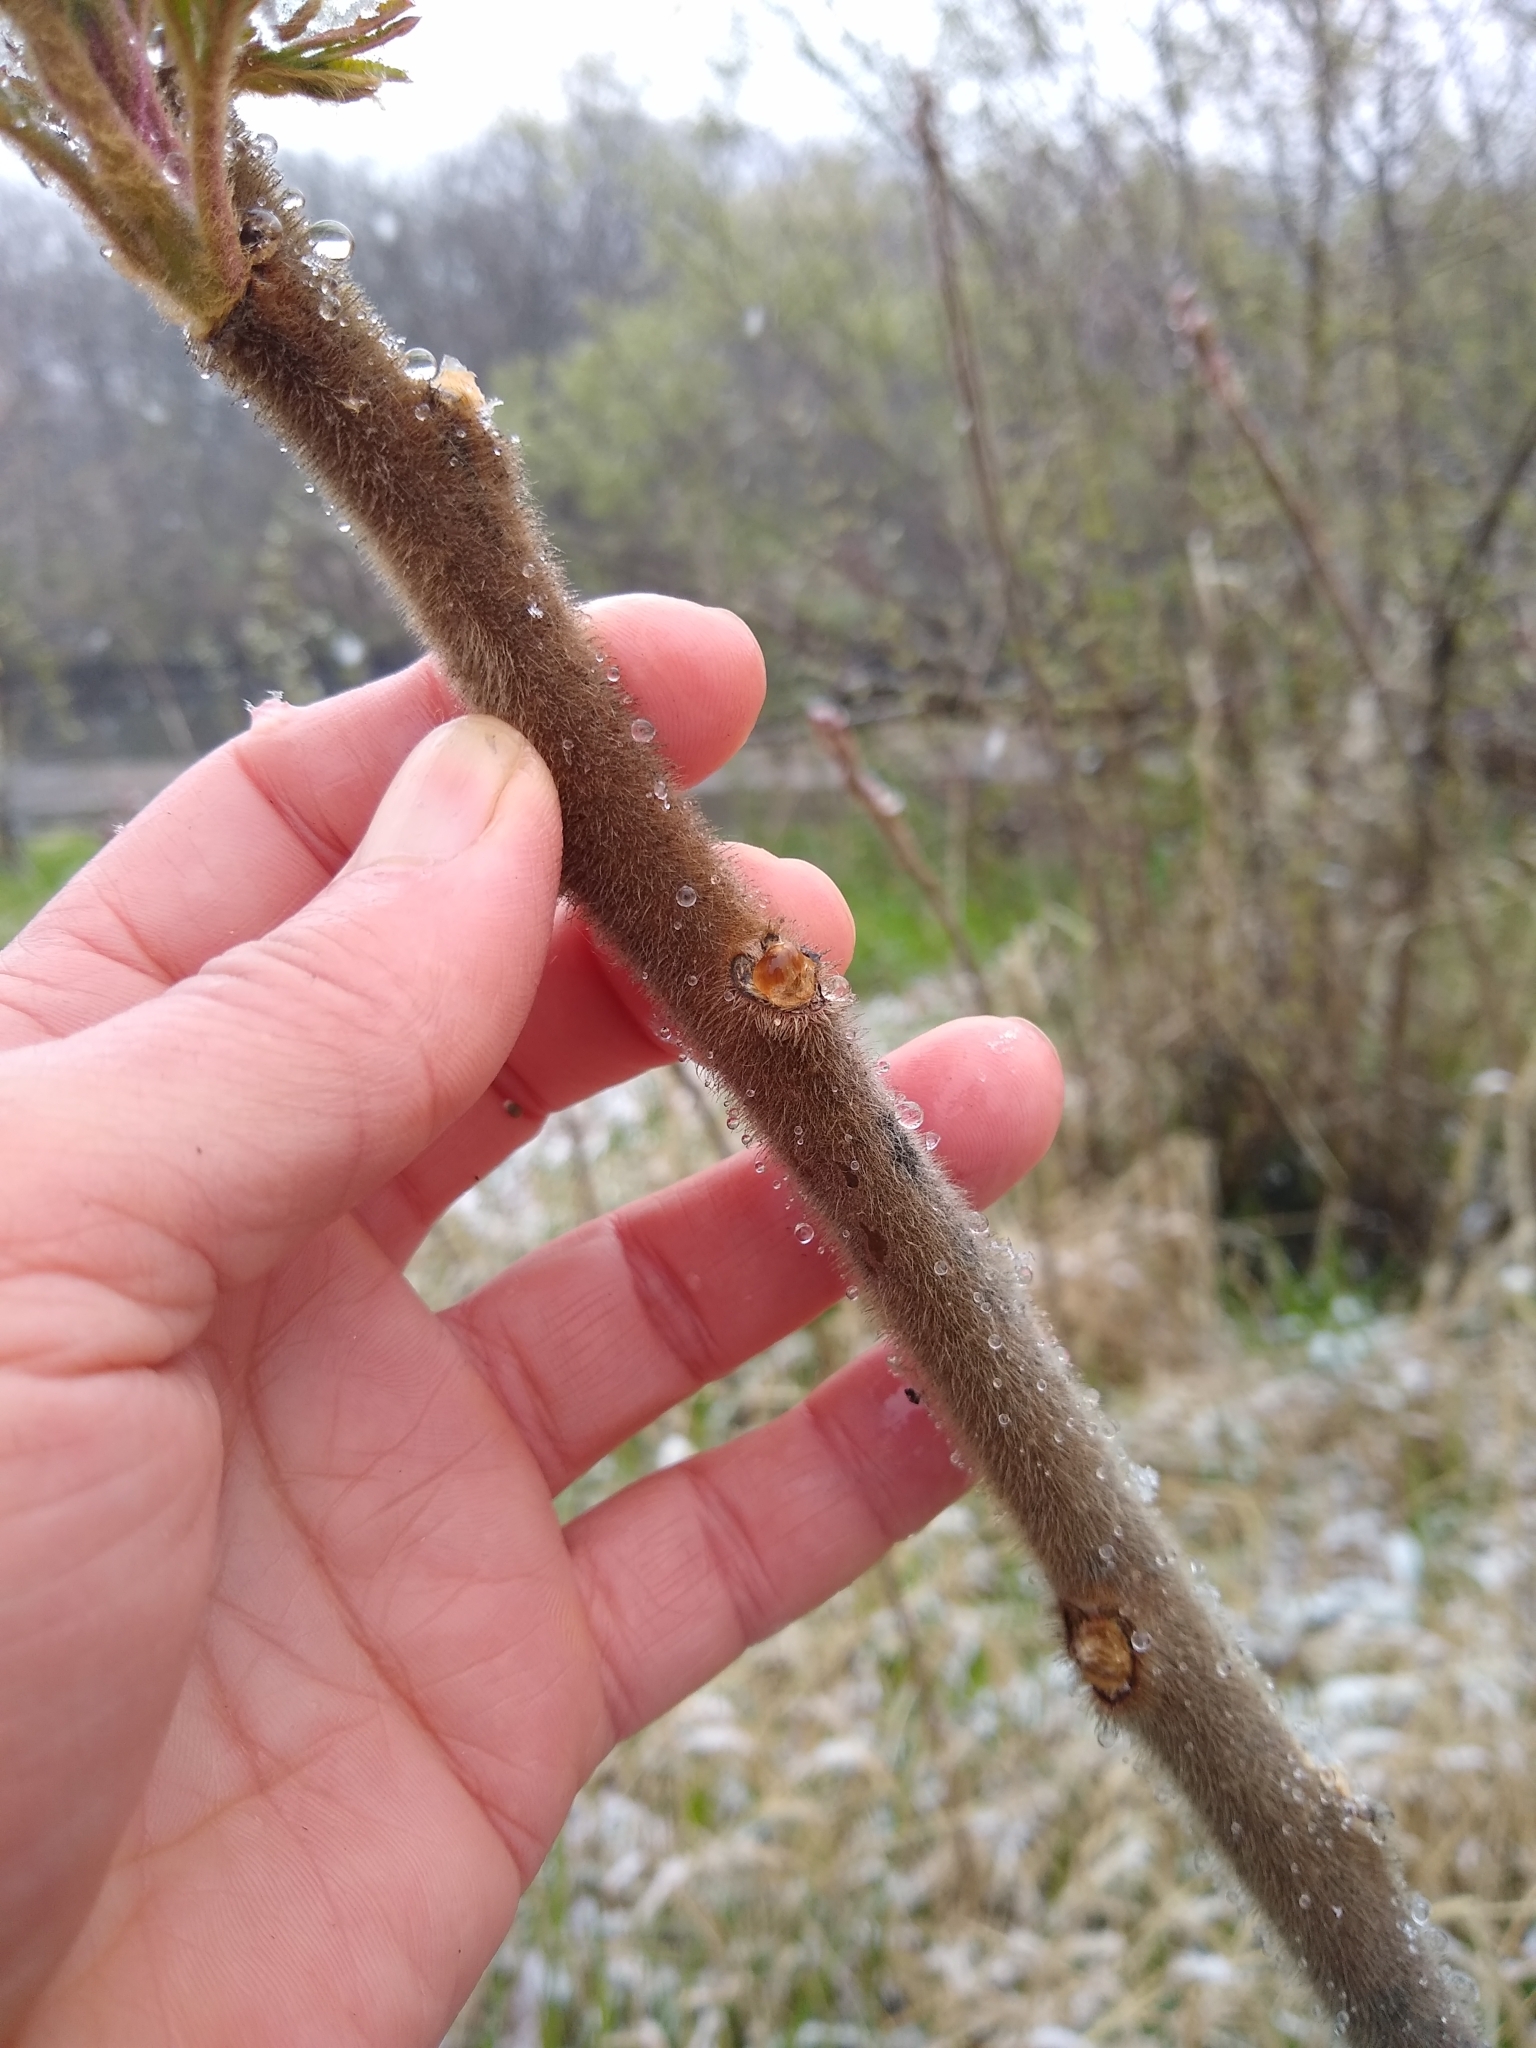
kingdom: Plantae
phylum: Tracheophyta
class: Magnoliopsida
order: Sapindales
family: Anacardiaceae
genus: Rhus
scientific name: Rhus typhina
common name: Staghorn sumac
